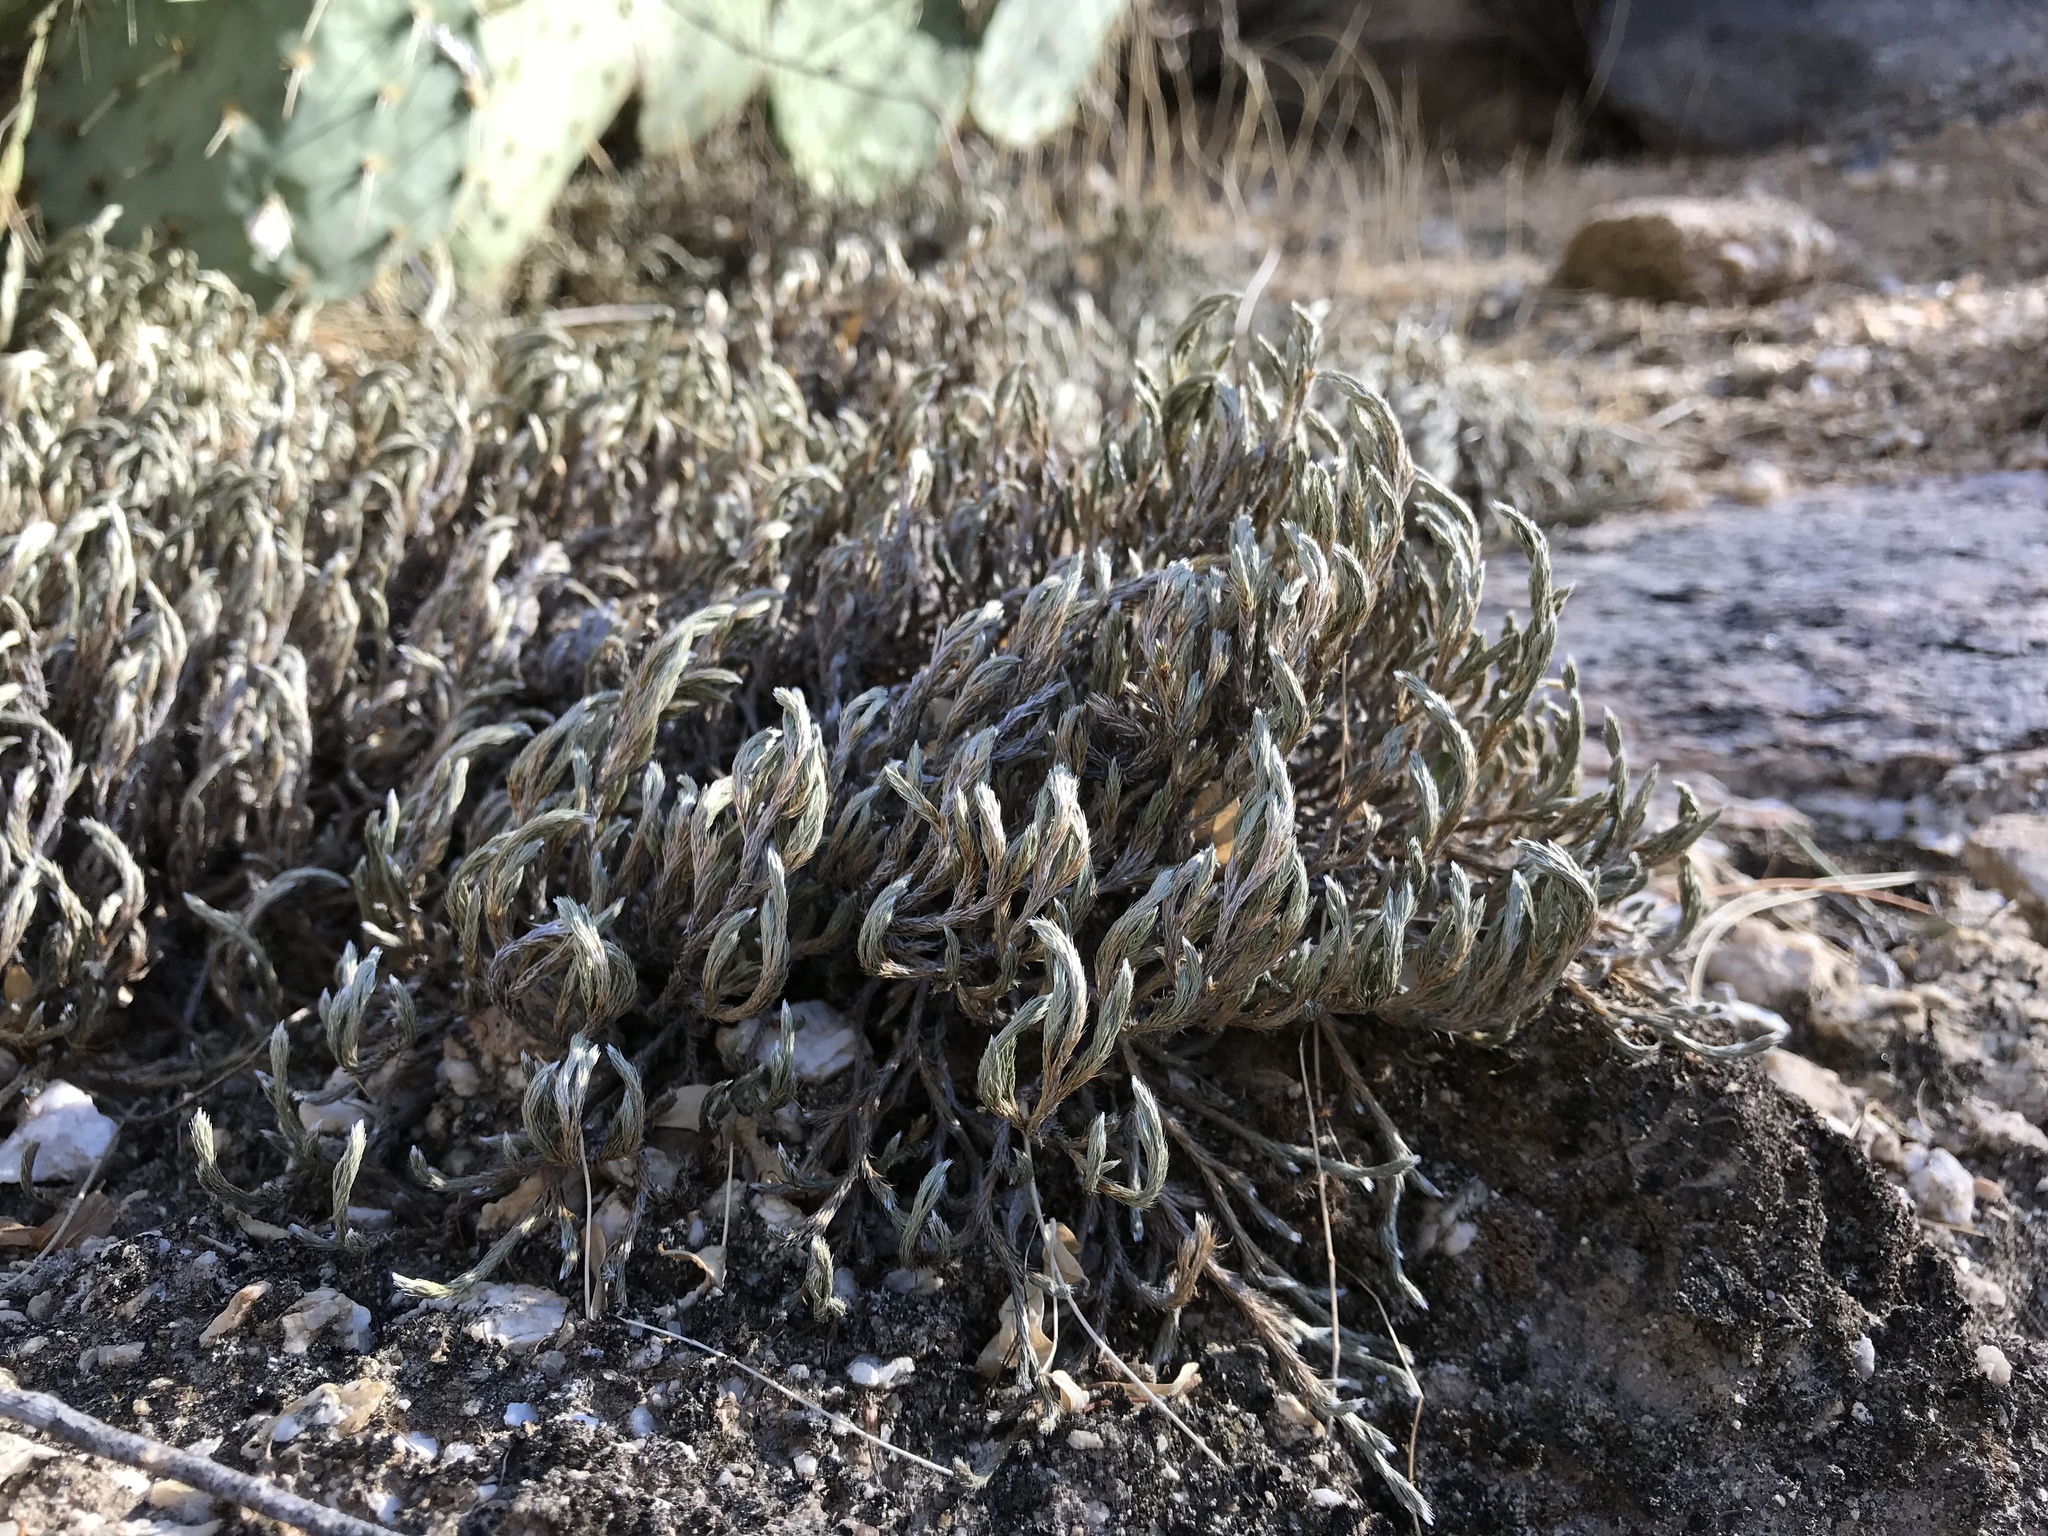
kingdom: Plantae
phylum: Tracheophyta
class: Lycopodiopsida
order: Selaginellales
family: Selaginellaceae
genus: Selaginella
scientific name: Selaginella rupincola
